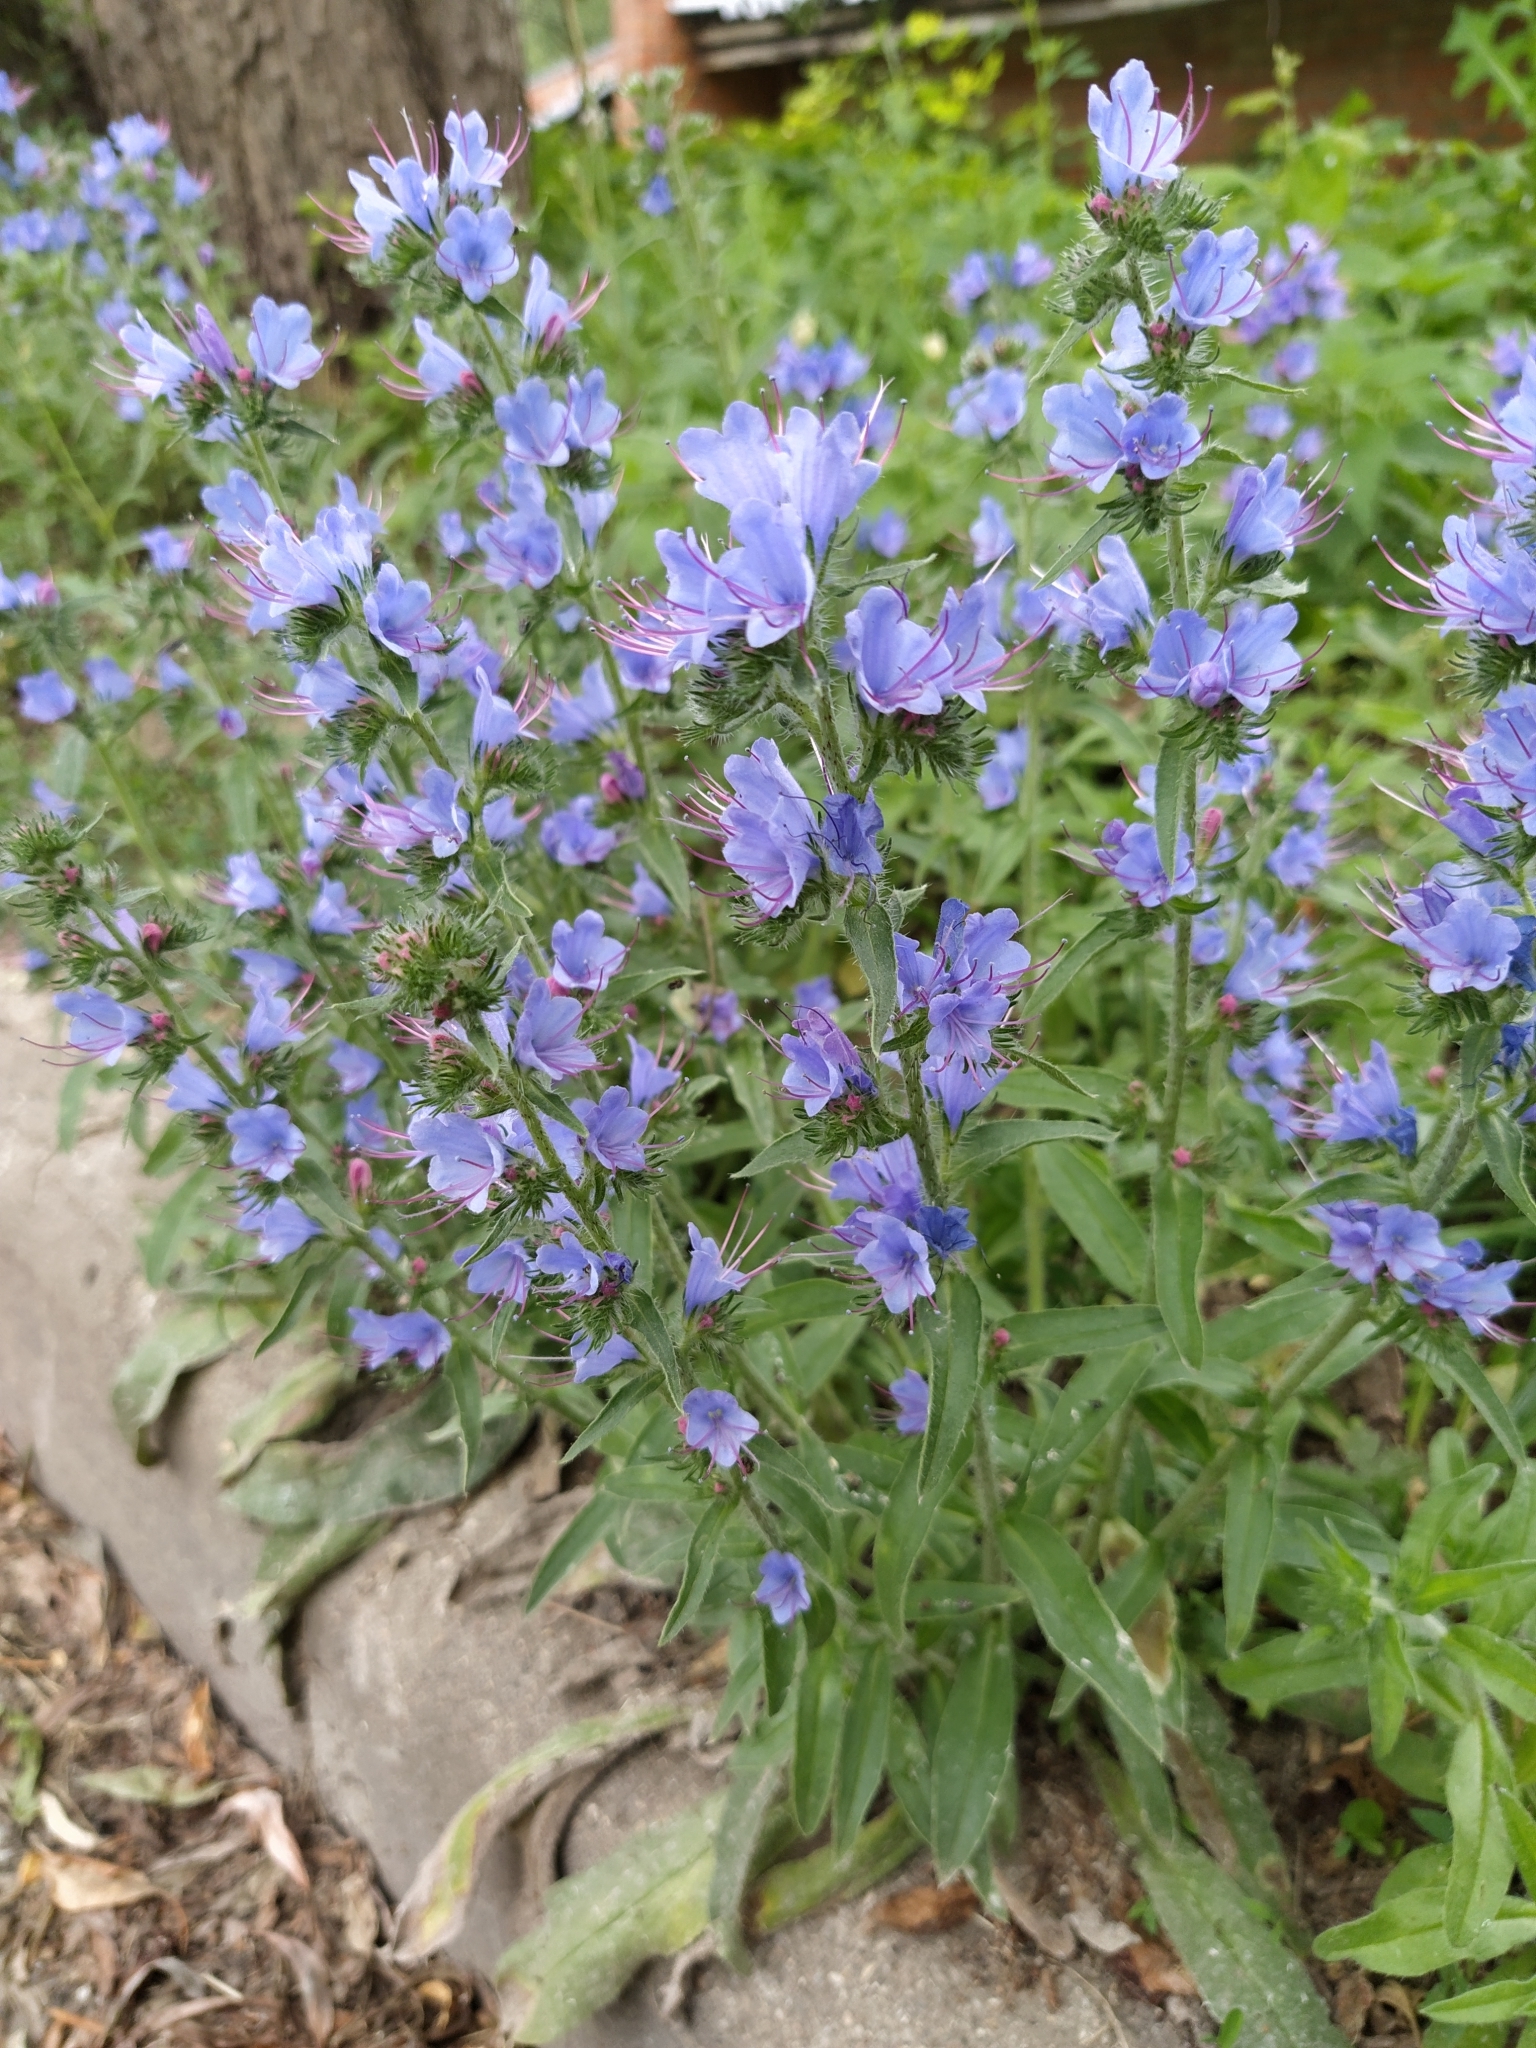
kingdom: Plantae
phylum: Tracheophyta
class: Magnoliopsida
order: Boraginales
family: Boraginaceae
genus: Echium
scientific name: Echium vulgare
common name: Common viper's bugloss
